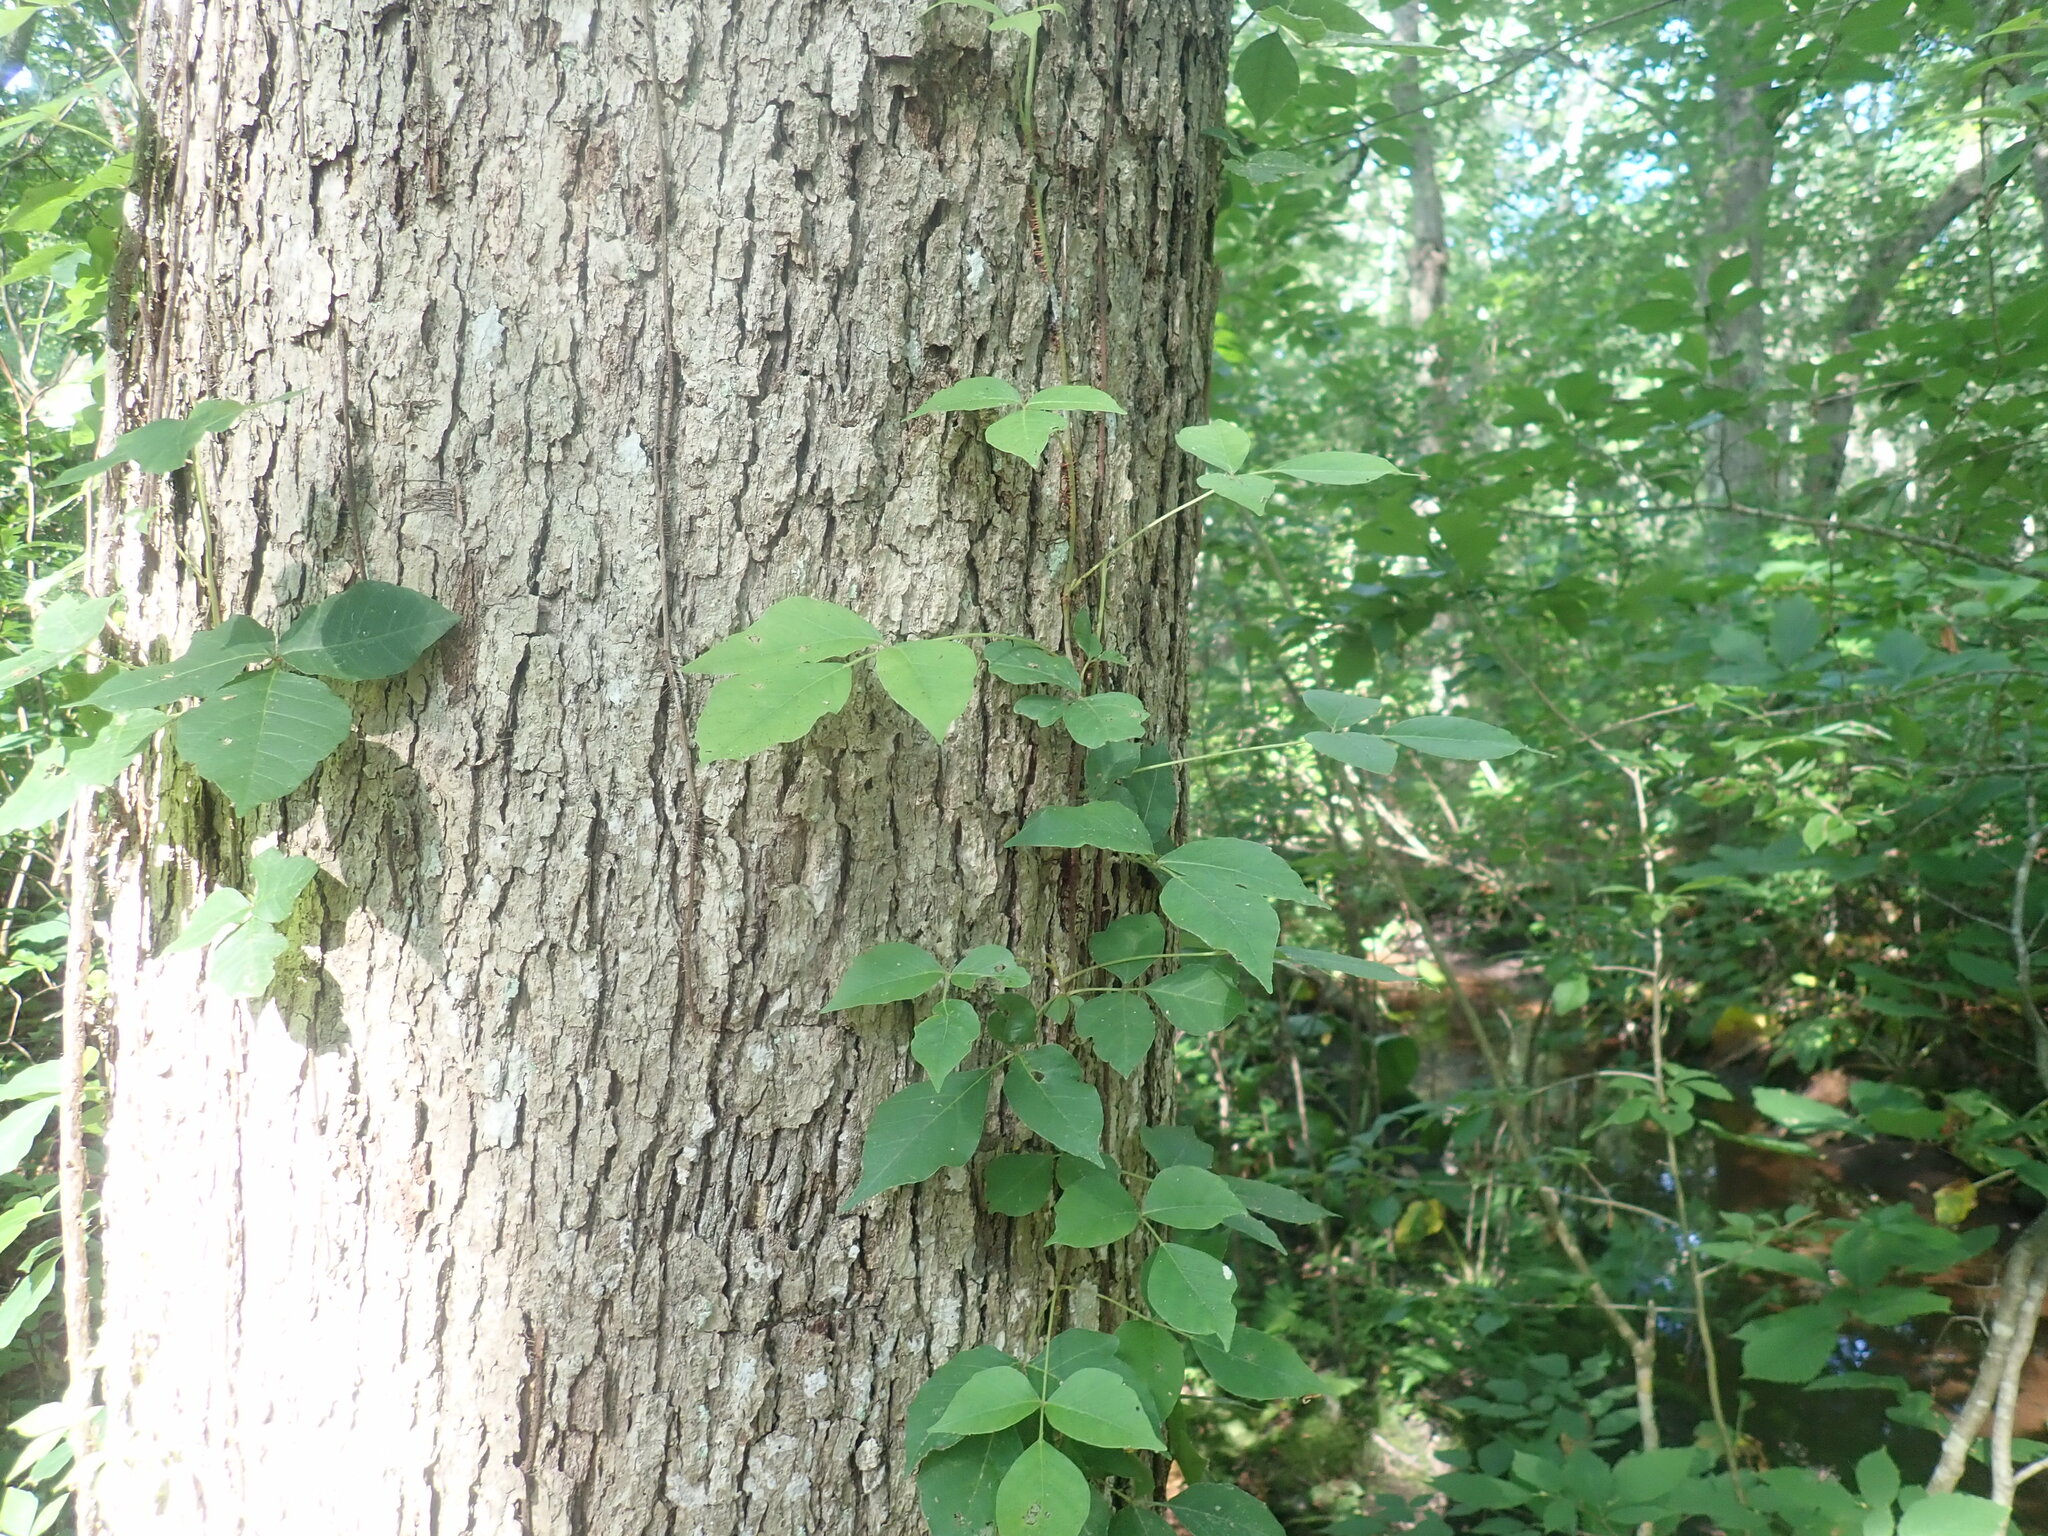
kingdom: Plantae
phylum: Tracheophyta
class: Magnoliopsida
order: Sapindales
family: Anacardiaceae
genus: Toxicodendron
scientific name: Toxicodendron radicans
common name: Poison ivy
